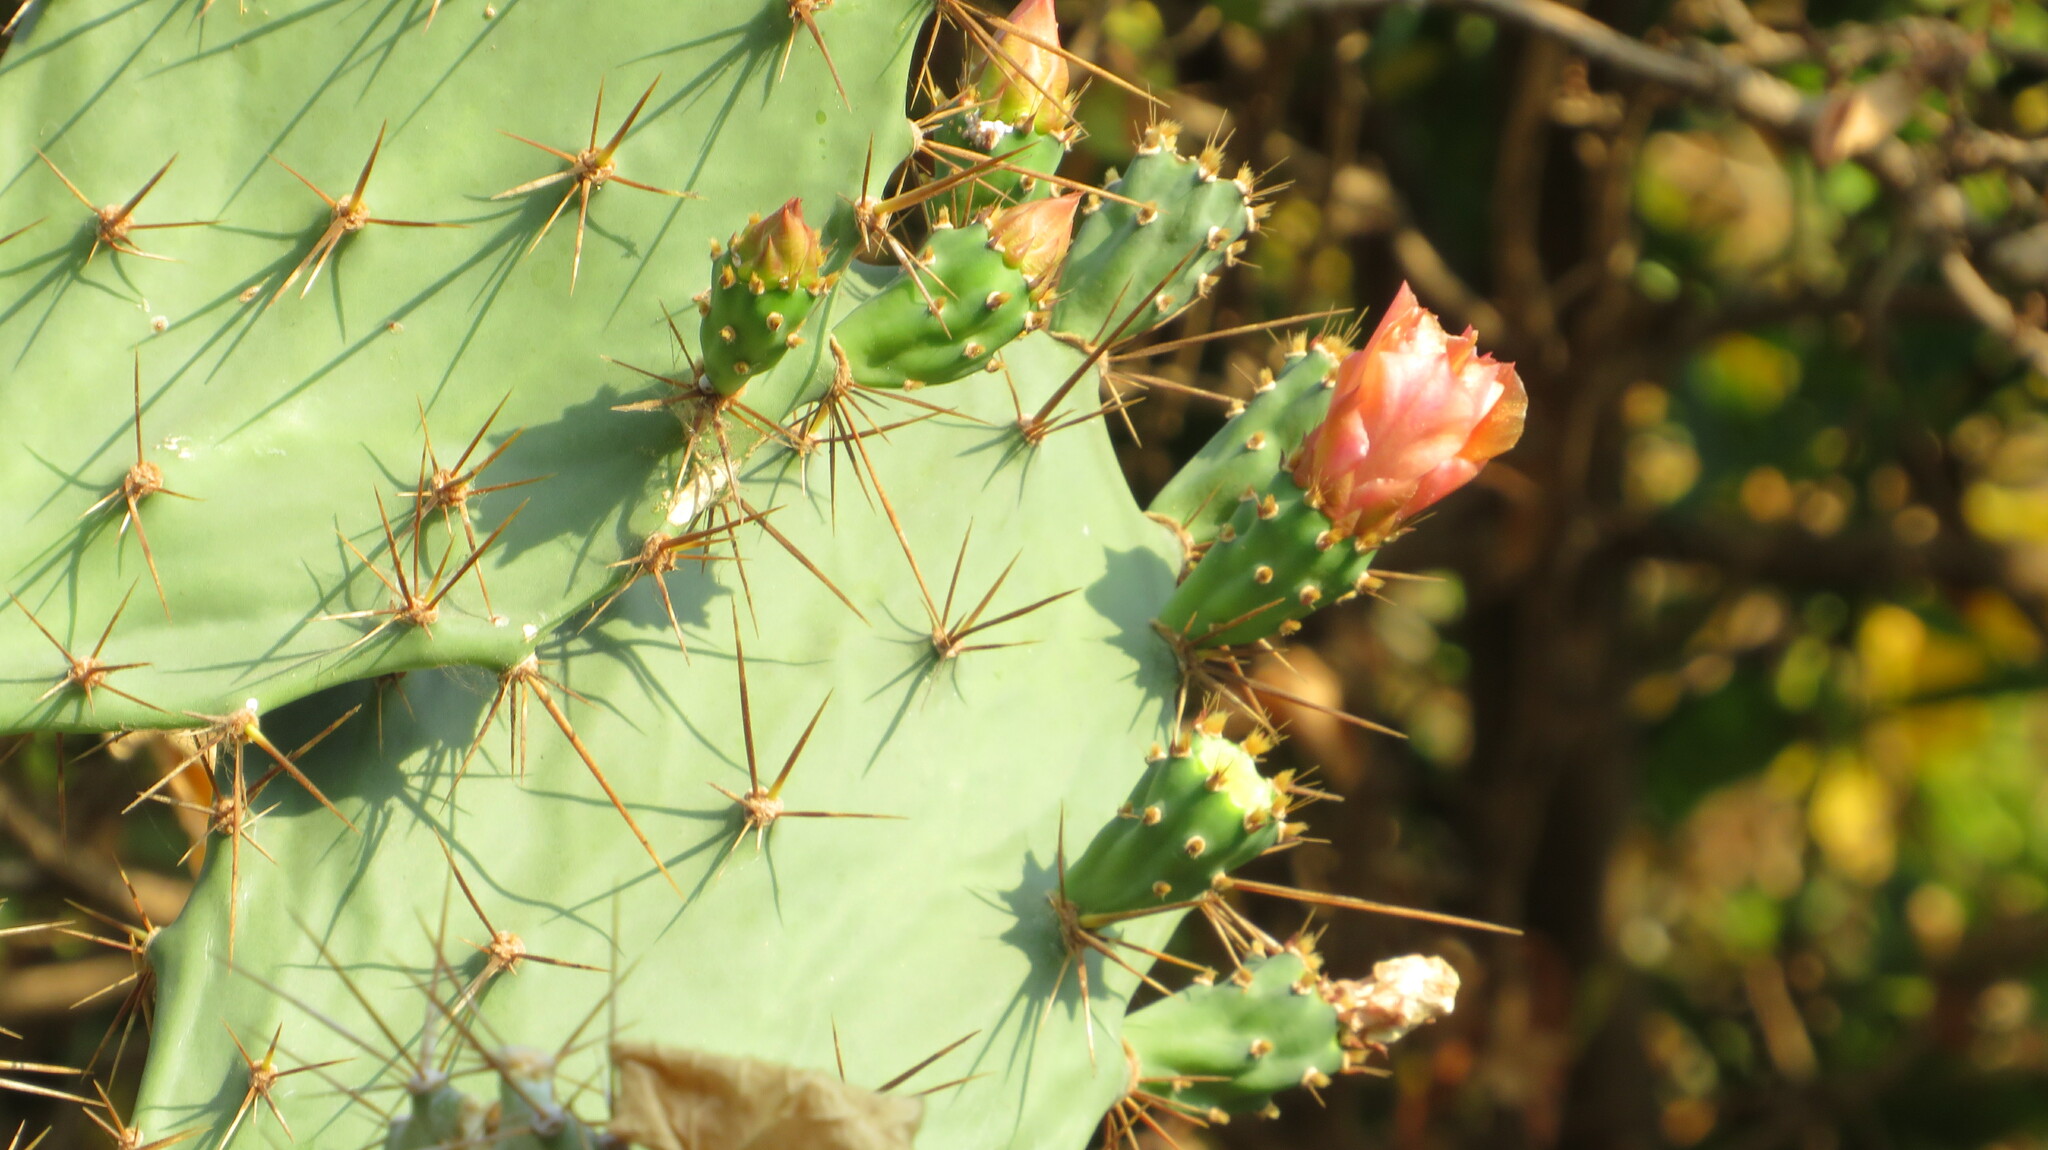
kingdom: Plantae
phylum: Tracheophyta
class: Magnoliopsida
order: Caryophyllales
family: Cactaceae
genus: Opuntia
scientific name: Opuntia elatior
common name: Tuna
